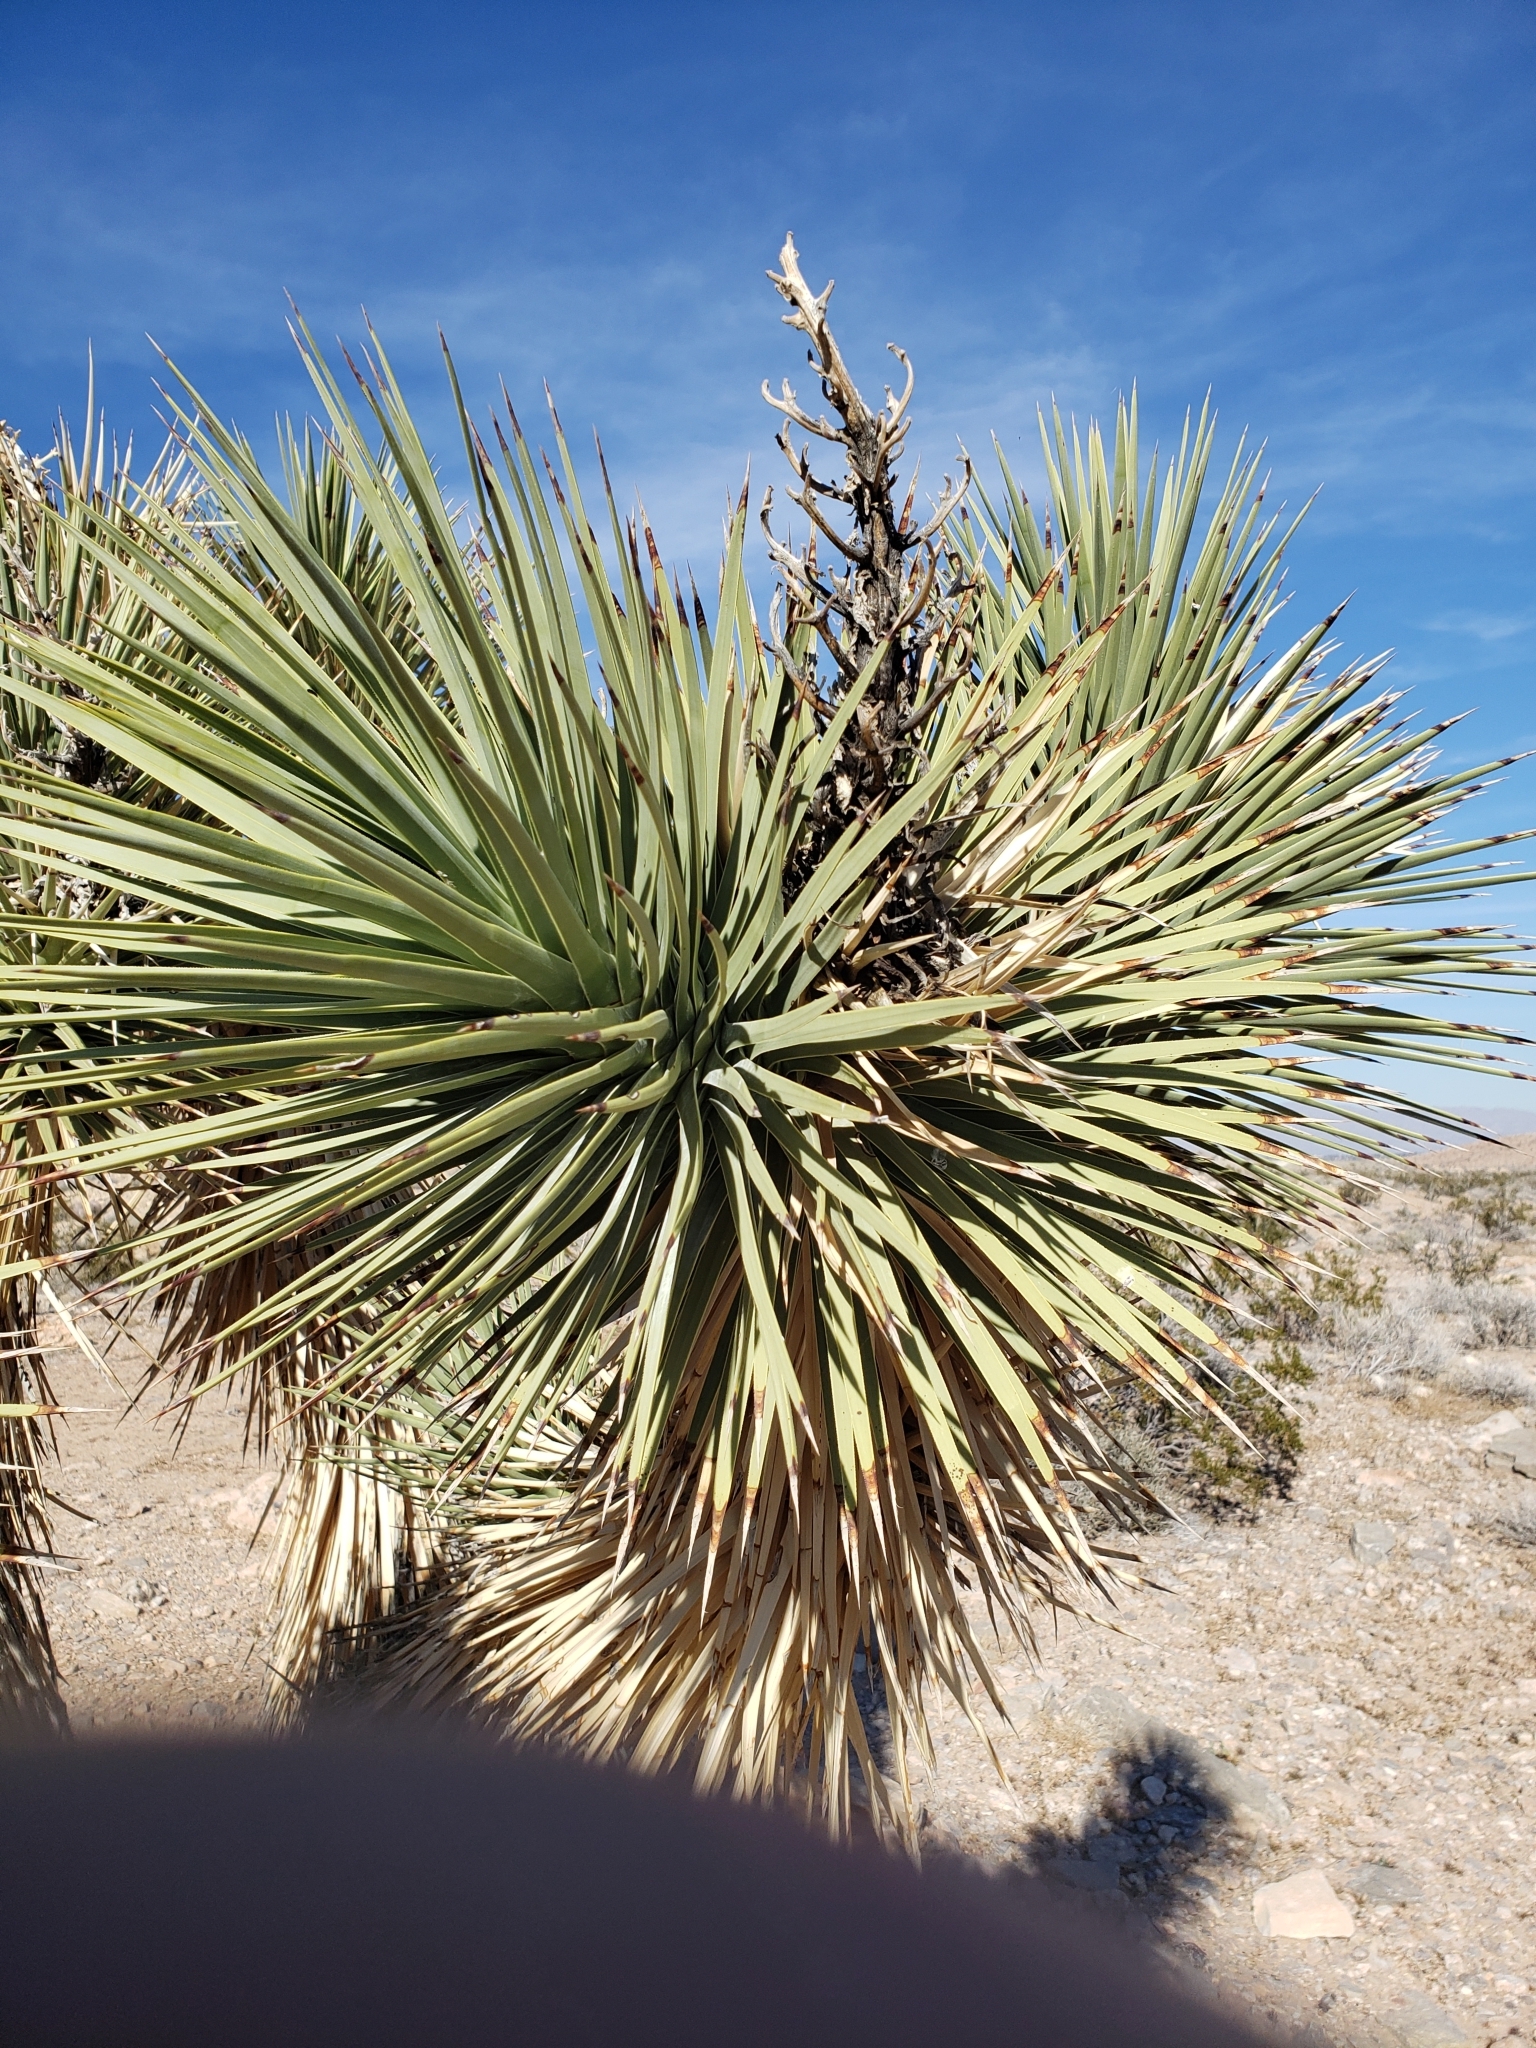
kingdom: Plantae
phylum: Tracheophyta
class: Liliopsida
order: Asparagales
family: Asparagaceae
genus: Yucca
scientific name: Yucca brevifolia
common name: Joshua tree
